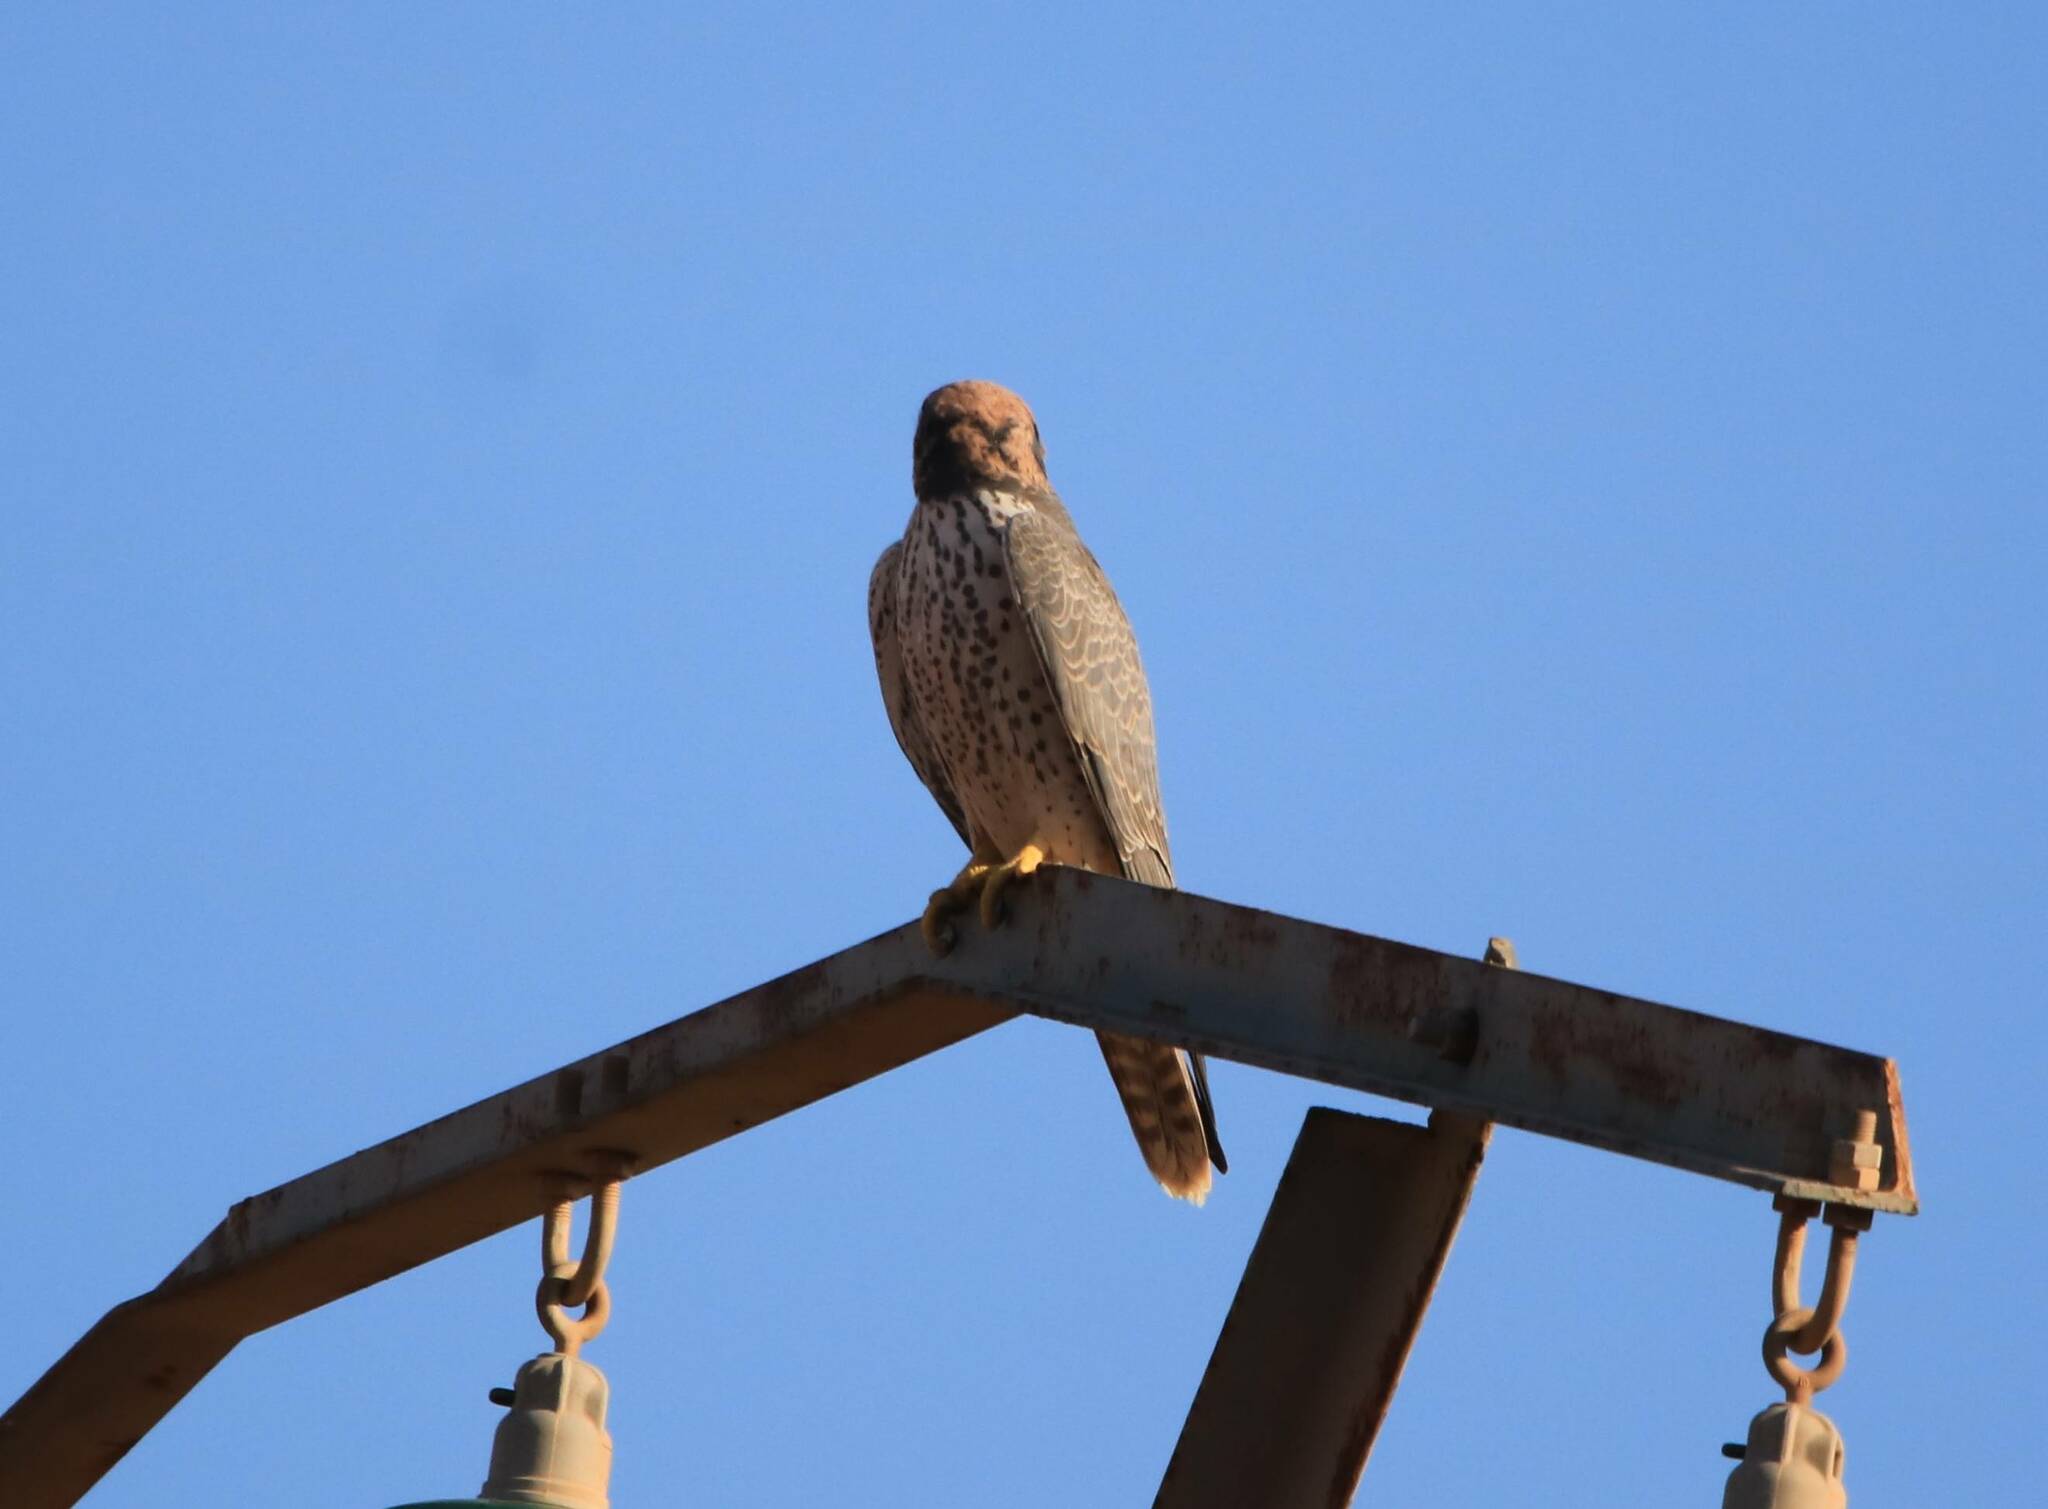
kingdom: Animalia
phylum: Chordata
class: Aves
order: Falconiformes
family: Falconidae
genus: Falco
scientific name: Falco biarmicus
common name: Lanner falcon
